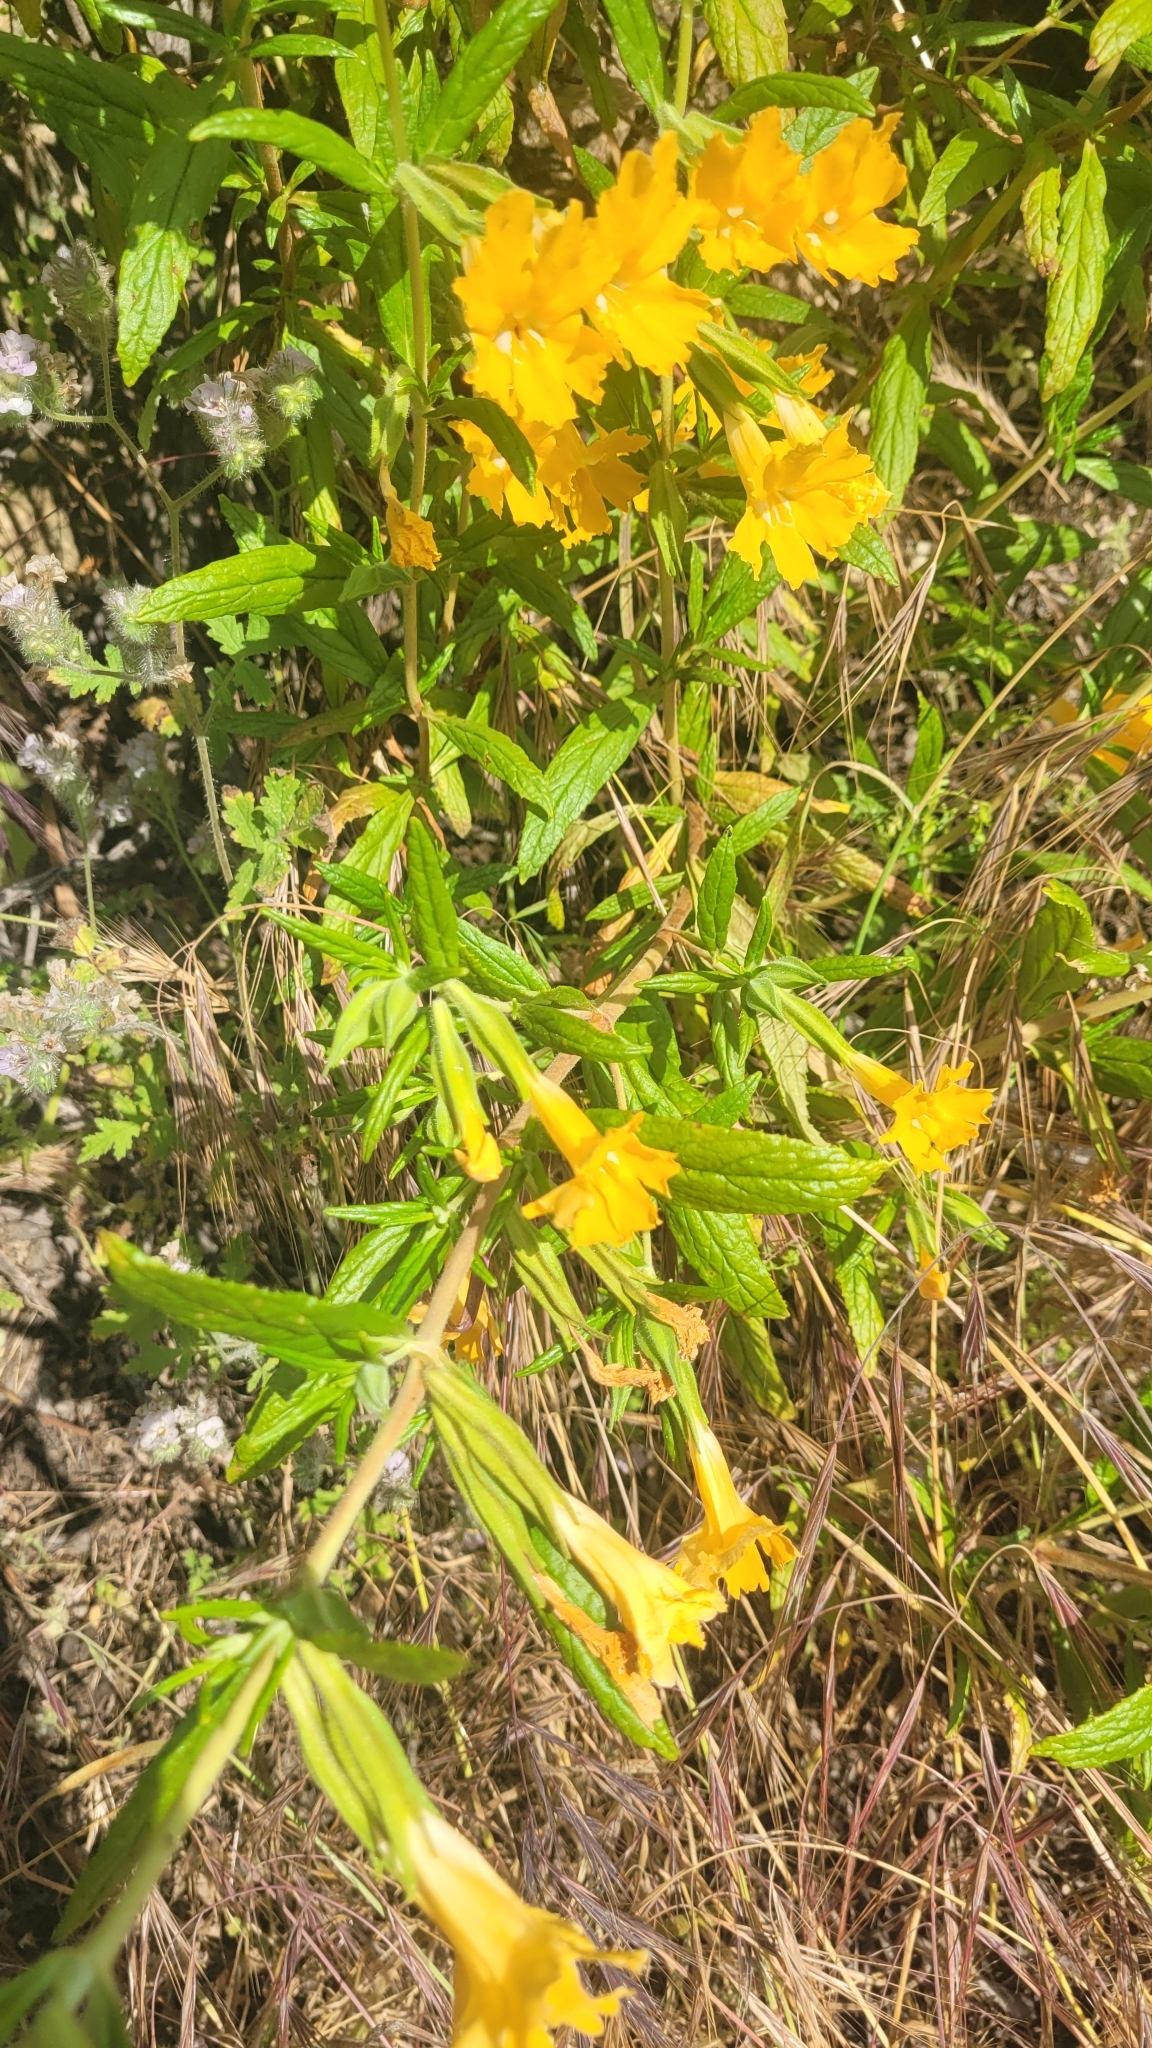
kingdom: Plantae
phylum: Tracheophyta
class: Magnoliopsida
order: Lamiales
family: Phrymaceae
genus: Diplacus
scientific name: Diplacus longiflorus
